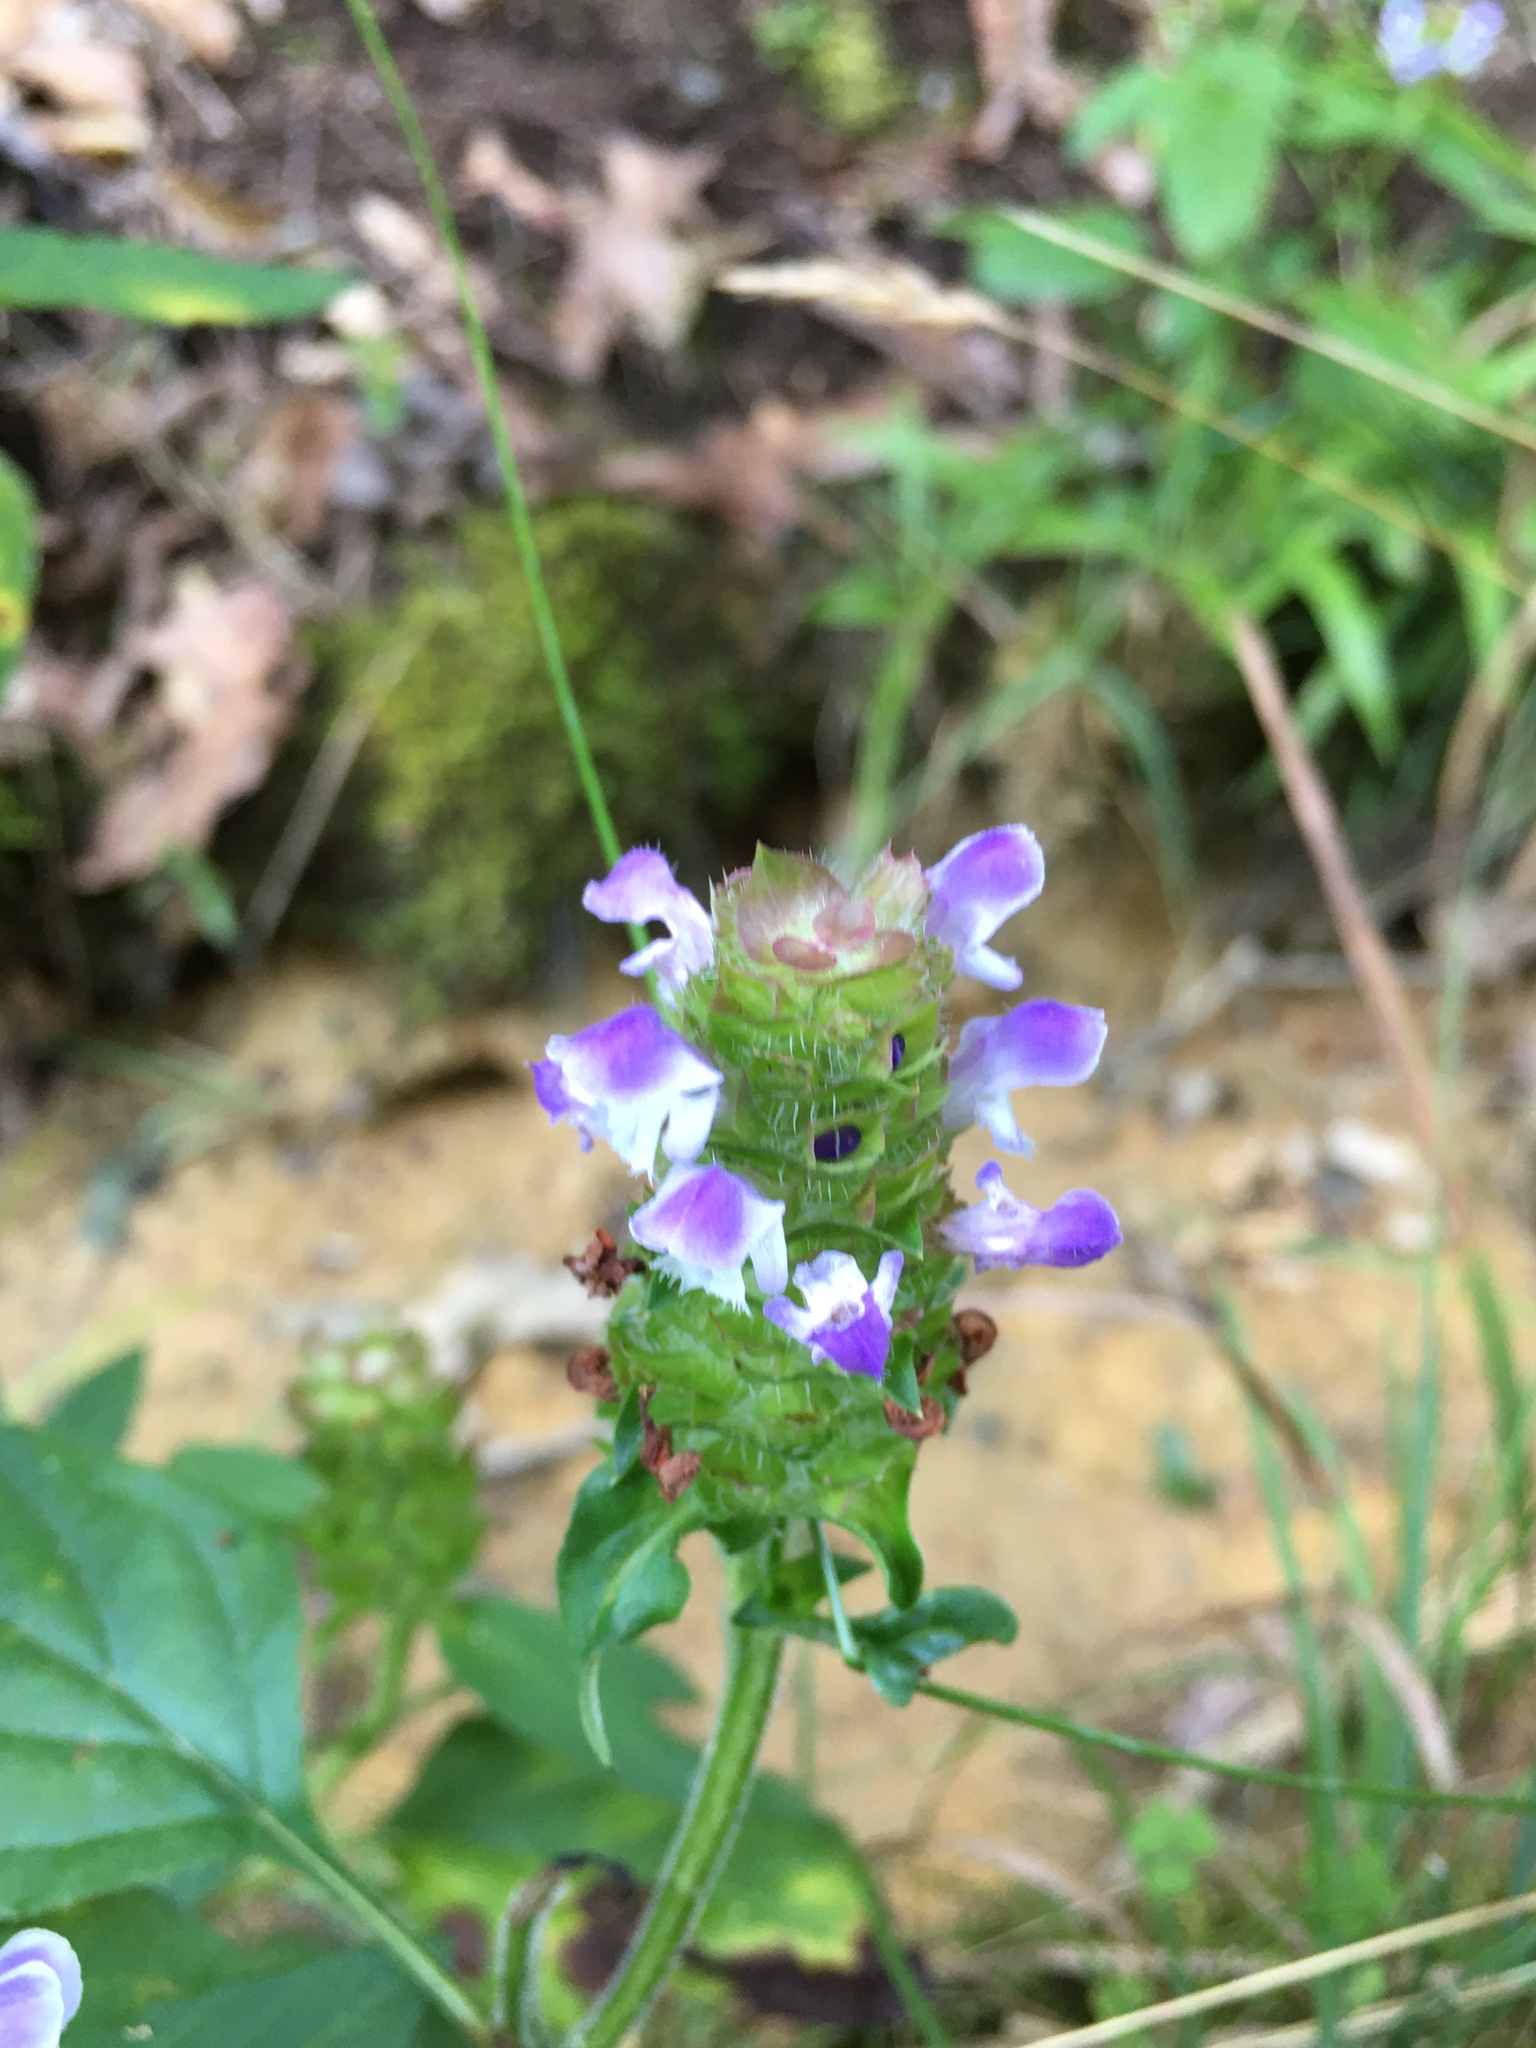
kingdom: Plantae
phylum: Tracheophyta
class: Magnoliopsida
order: Lamiales
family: Lamiaceae
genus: Prunella
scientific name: Prunella vulgaris
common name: Heal-all
